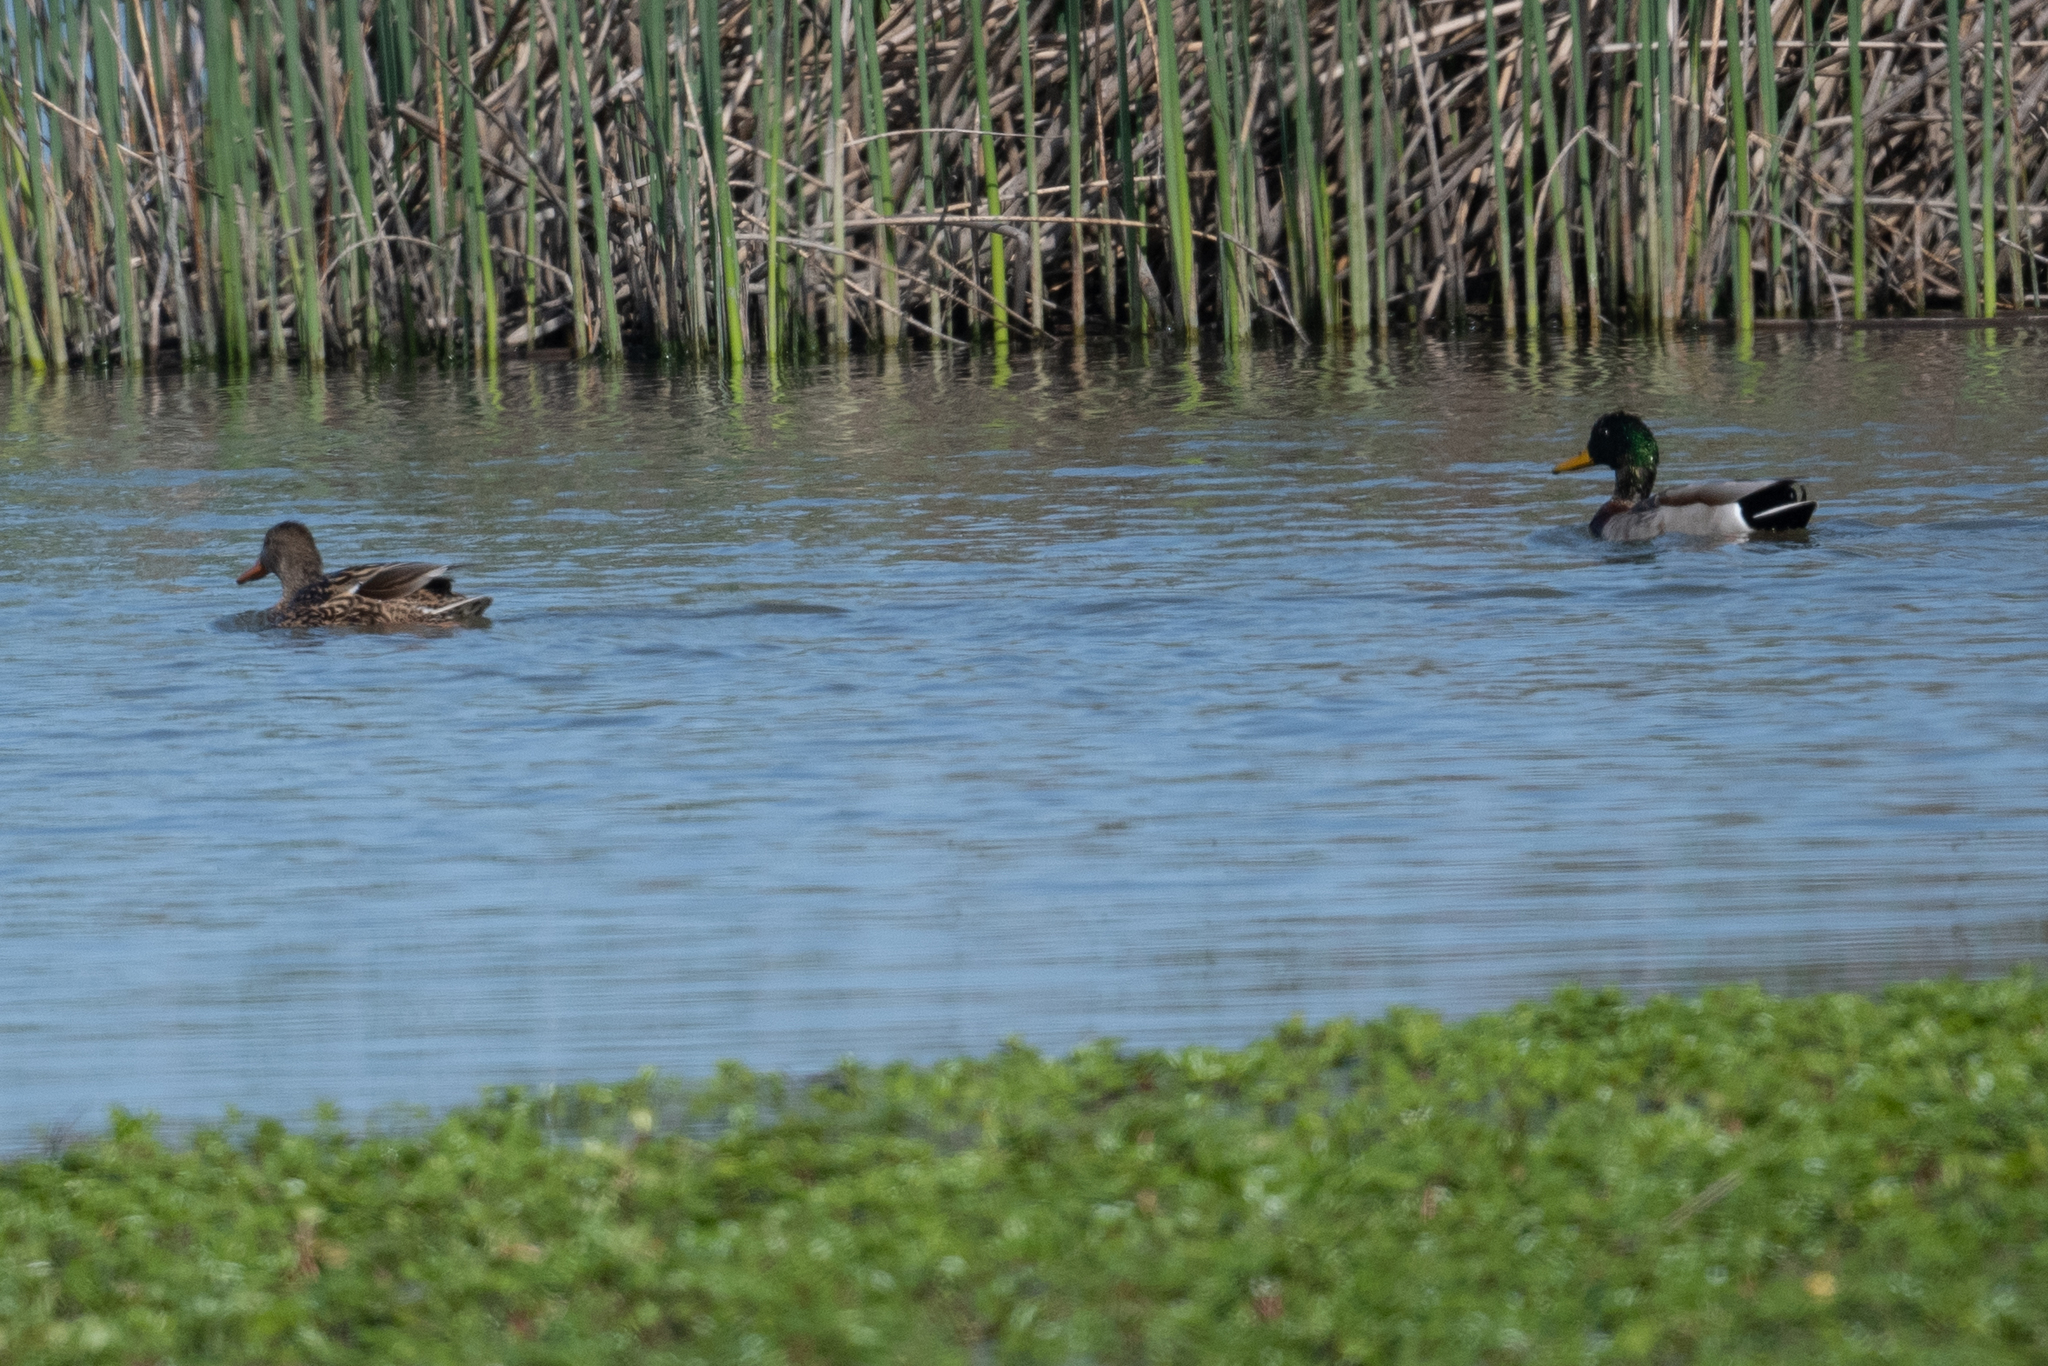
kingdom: Animalia
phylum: Chordata
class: Aves
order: Anseriformes
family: Anatidae
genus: Anas
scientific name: Anas platyrhynchos
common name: Mallard
